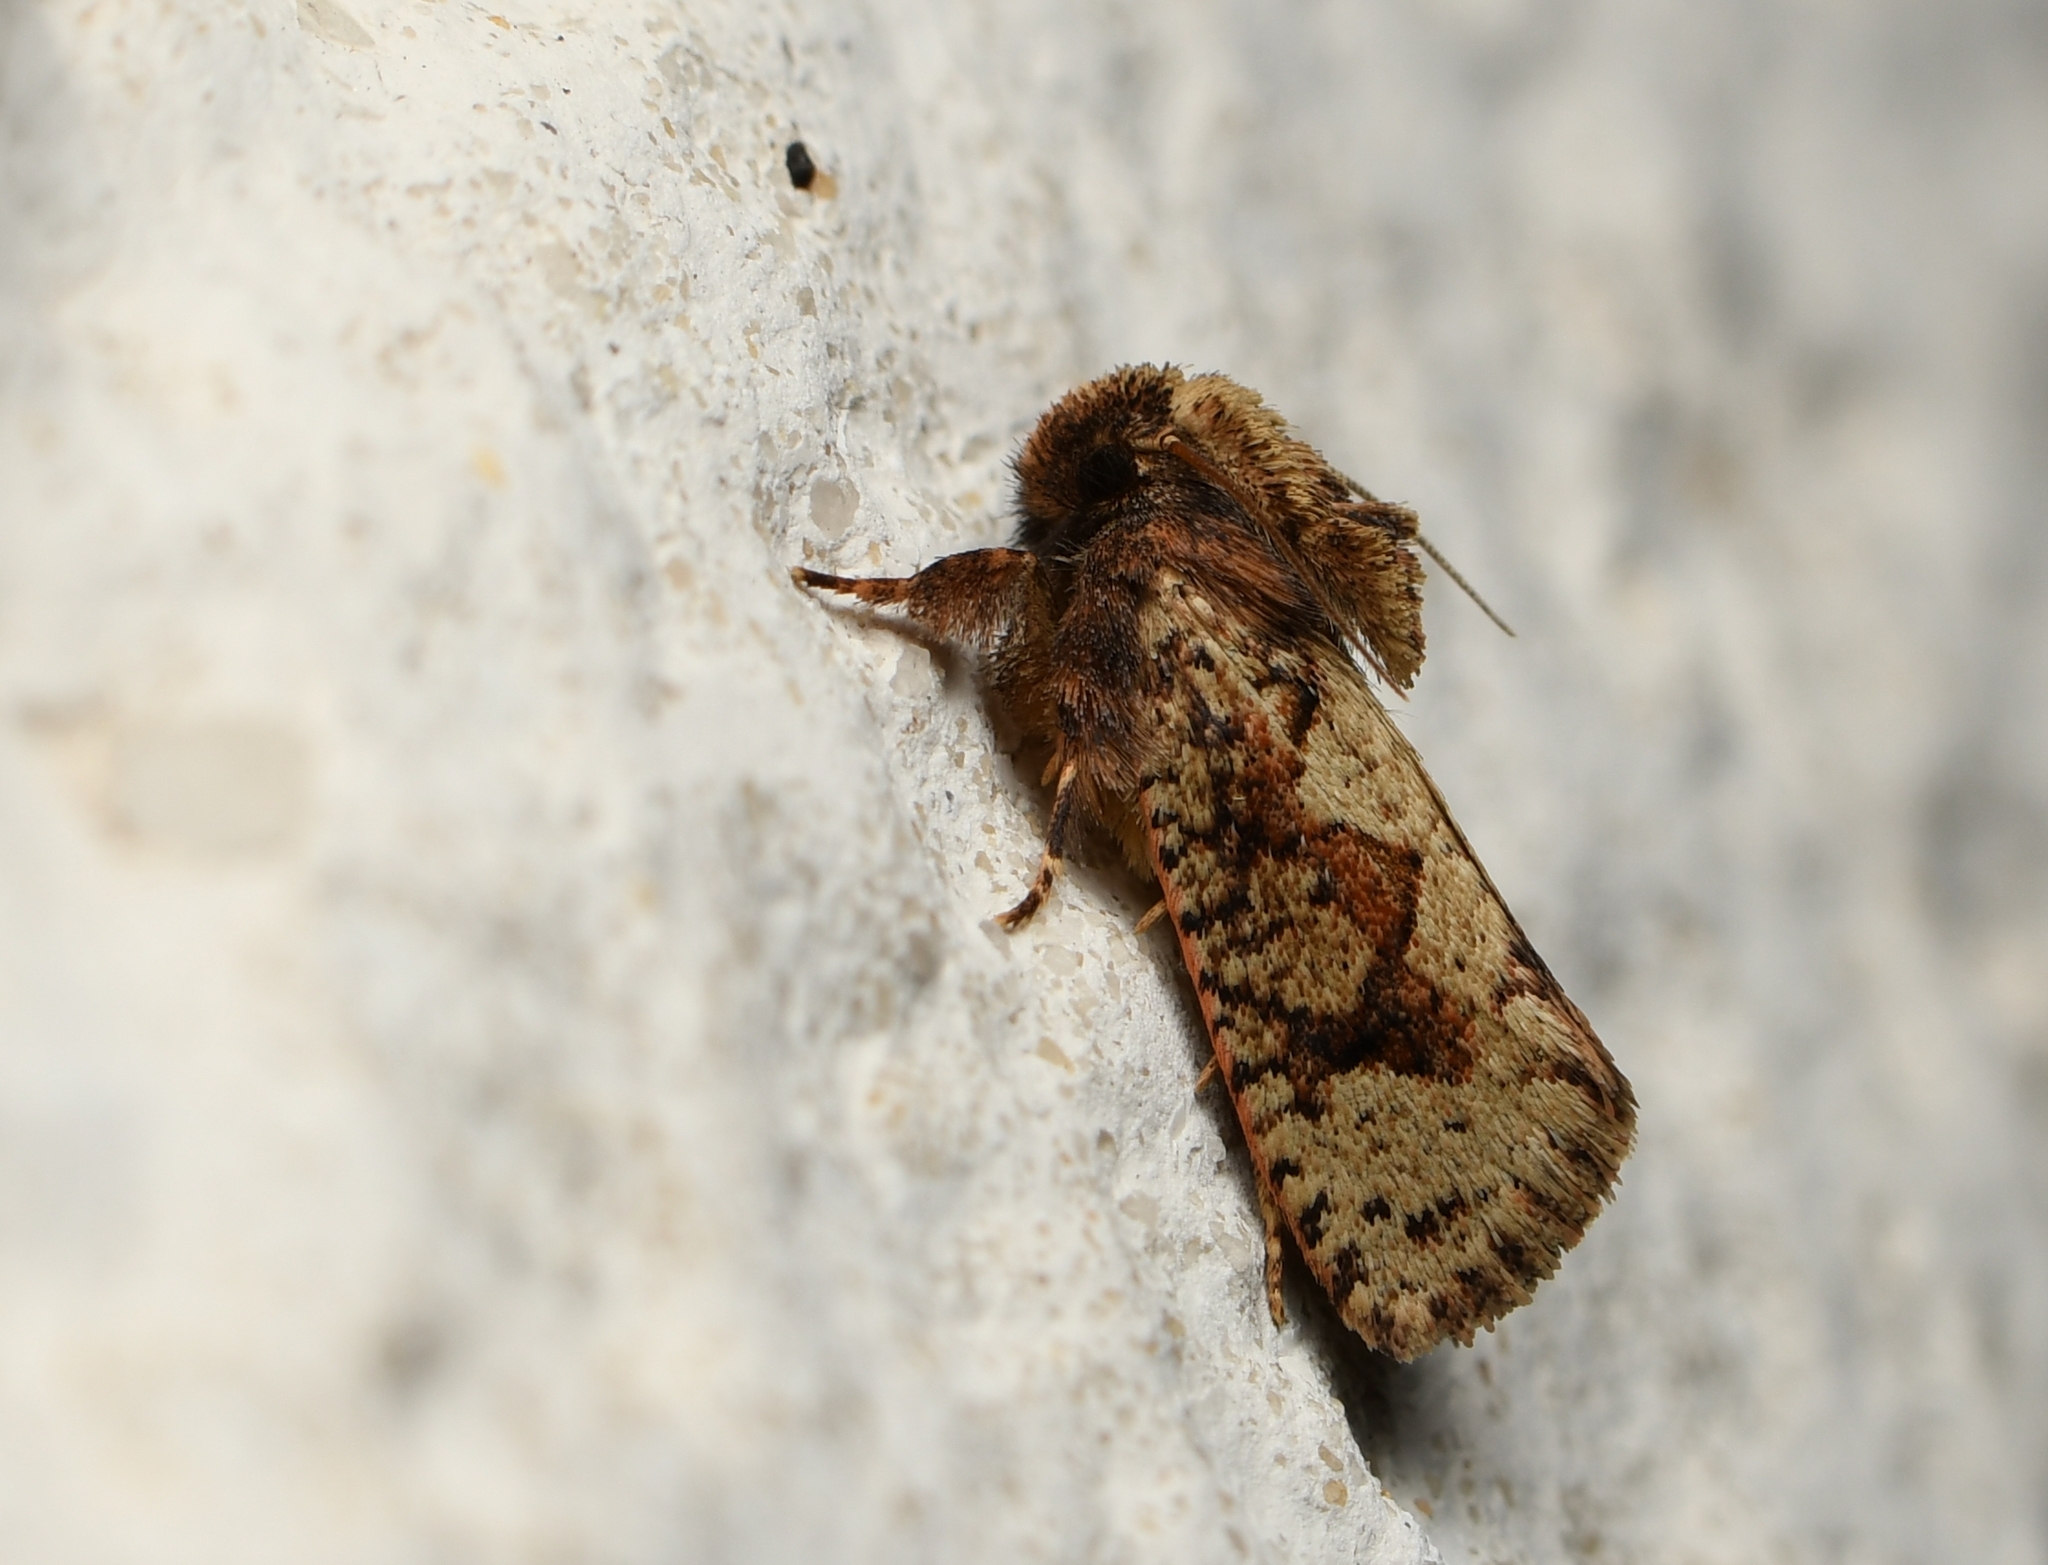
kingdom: Animalia
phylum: Arthropoda
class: Insecta
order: Lepidoptera
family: Tineidae
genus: Acrolophus
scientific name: Acrolophus walsinghami
